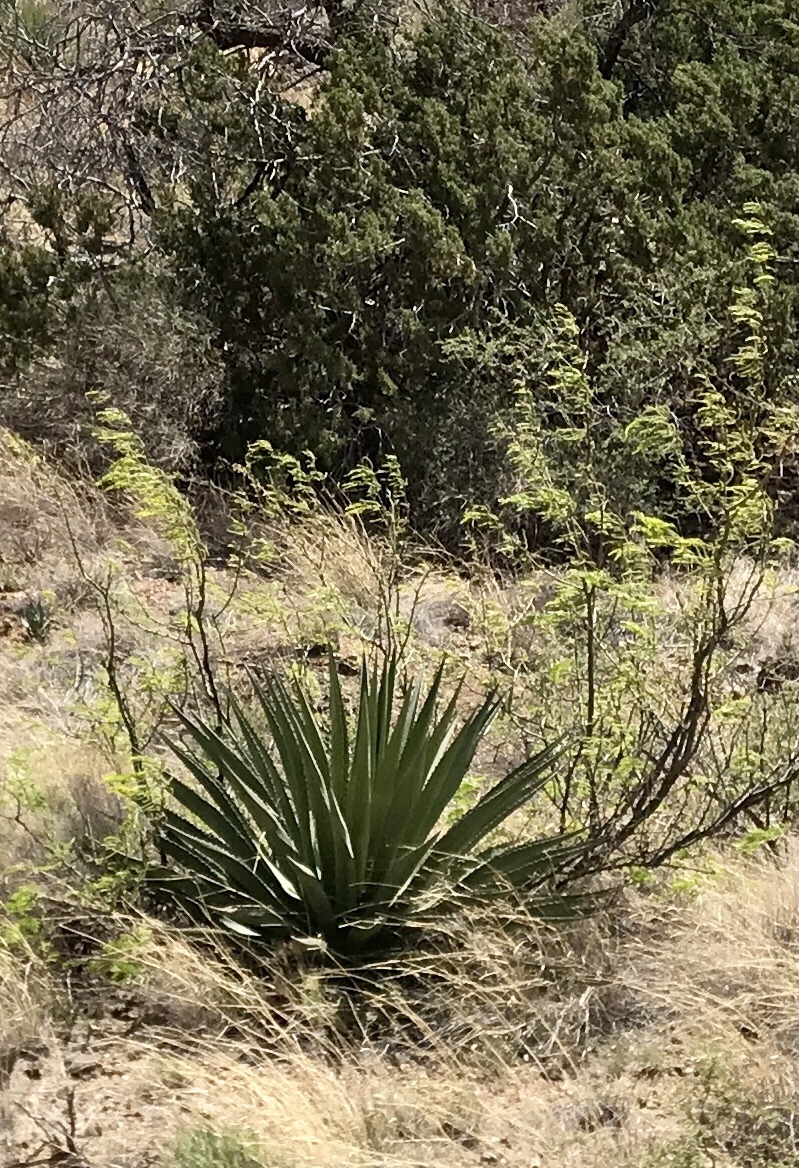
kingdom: Plantae
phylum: Tracheophyta
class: Liliopsida
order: Asparagales
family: Asparagaceae
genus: Agave
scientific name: Agave palmeri
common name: Palmer agave
